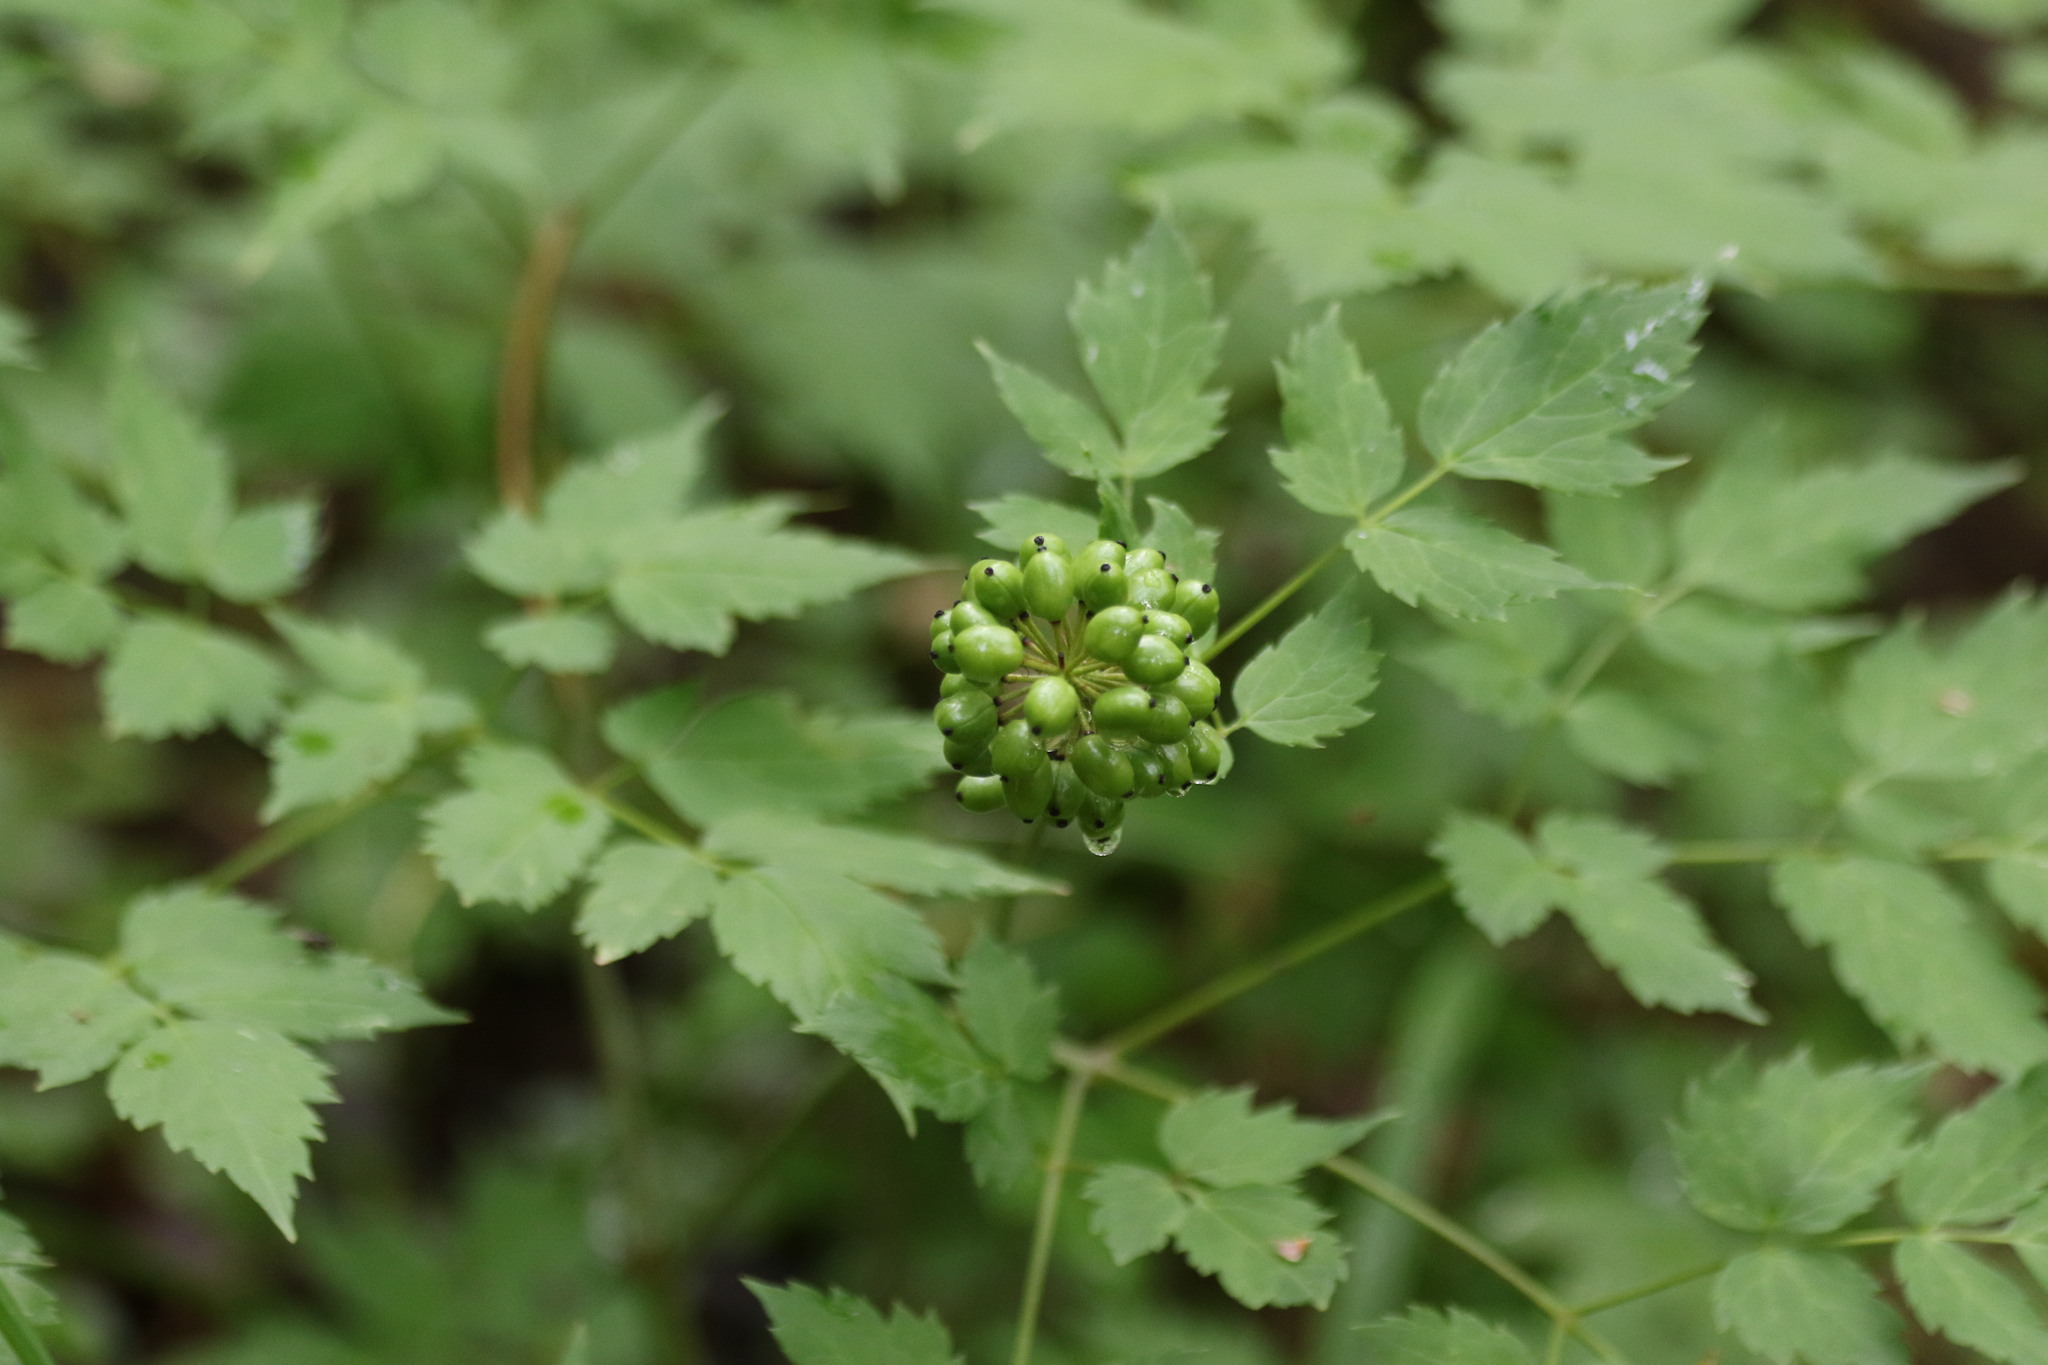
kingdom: Plantae
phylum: Tracheophyta
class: Magnoliopsida
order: Ranunculales
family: Ranunculaceae
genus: Actaea
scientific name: Actaea erythrocarpa
